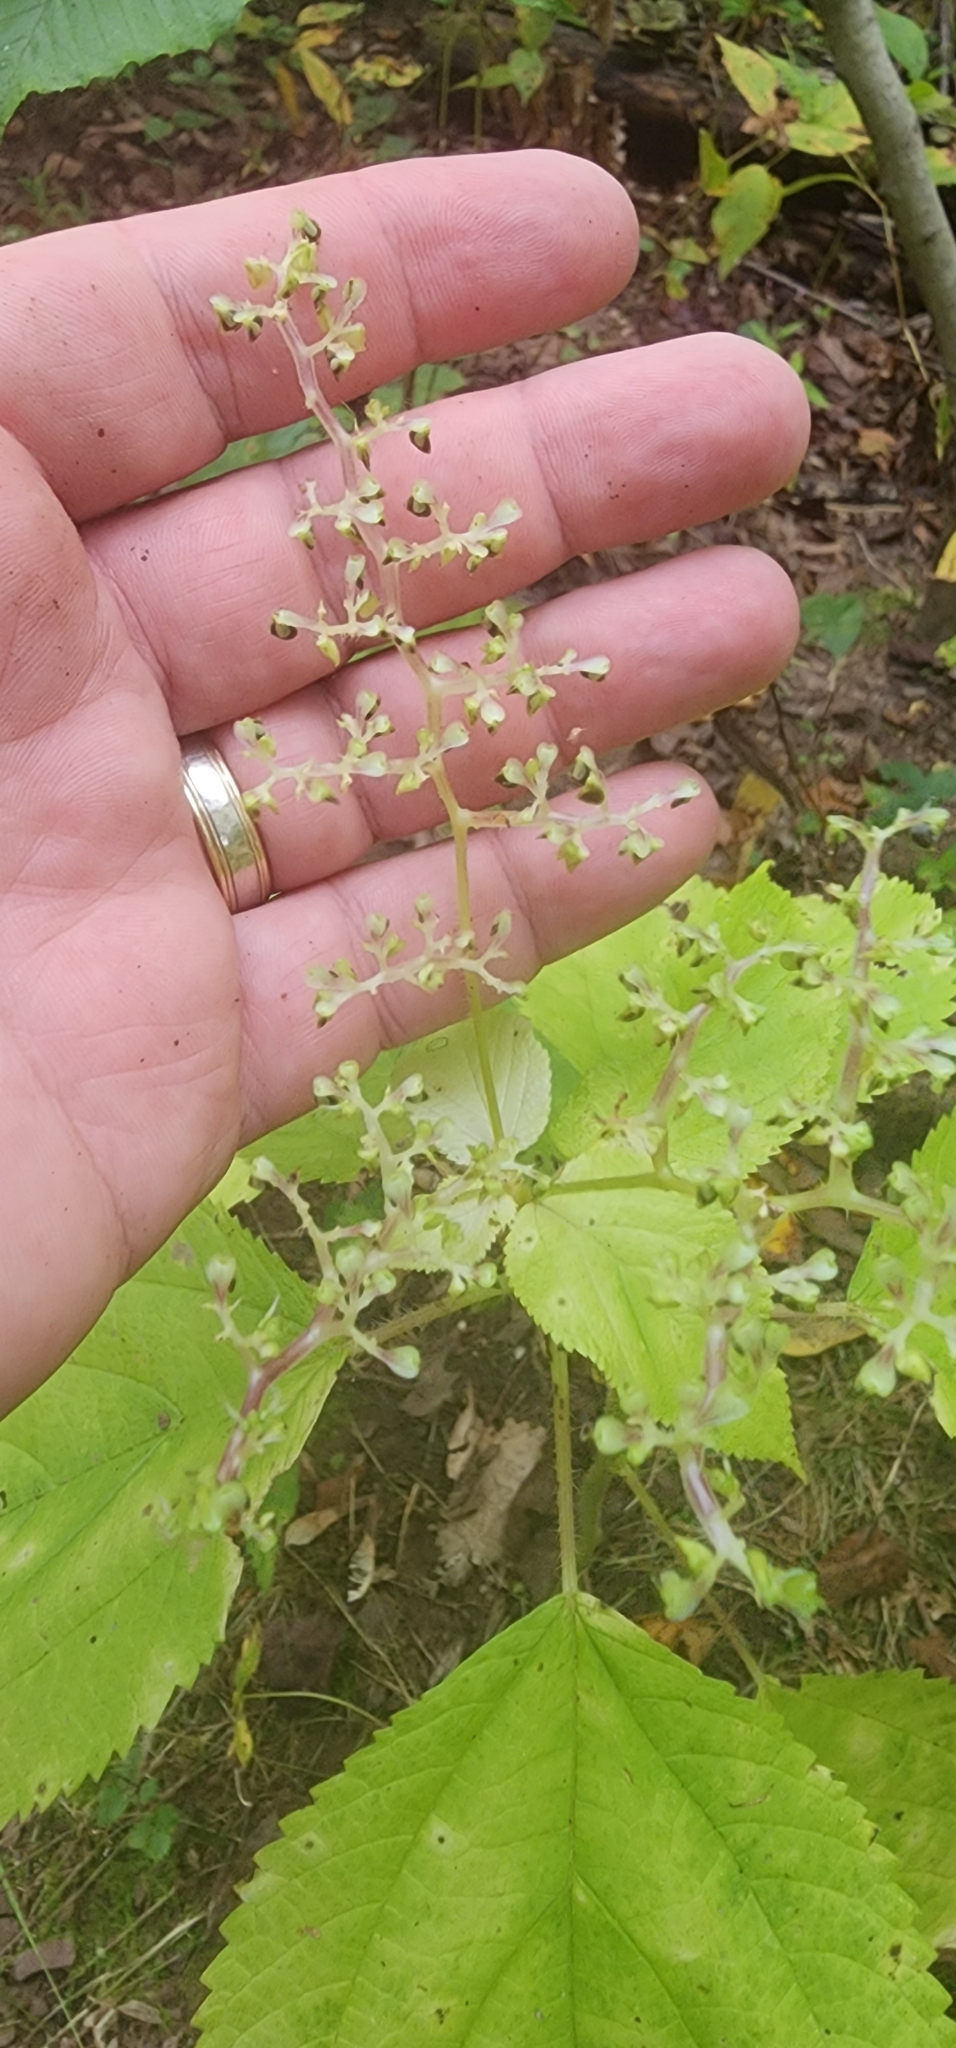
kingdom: Plantae
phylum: Tracheophyta
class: Magnoliopsida
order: Rosales
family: Urticaceae
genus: Laportea
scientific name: Laportea canadensis
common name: Canada nettle
